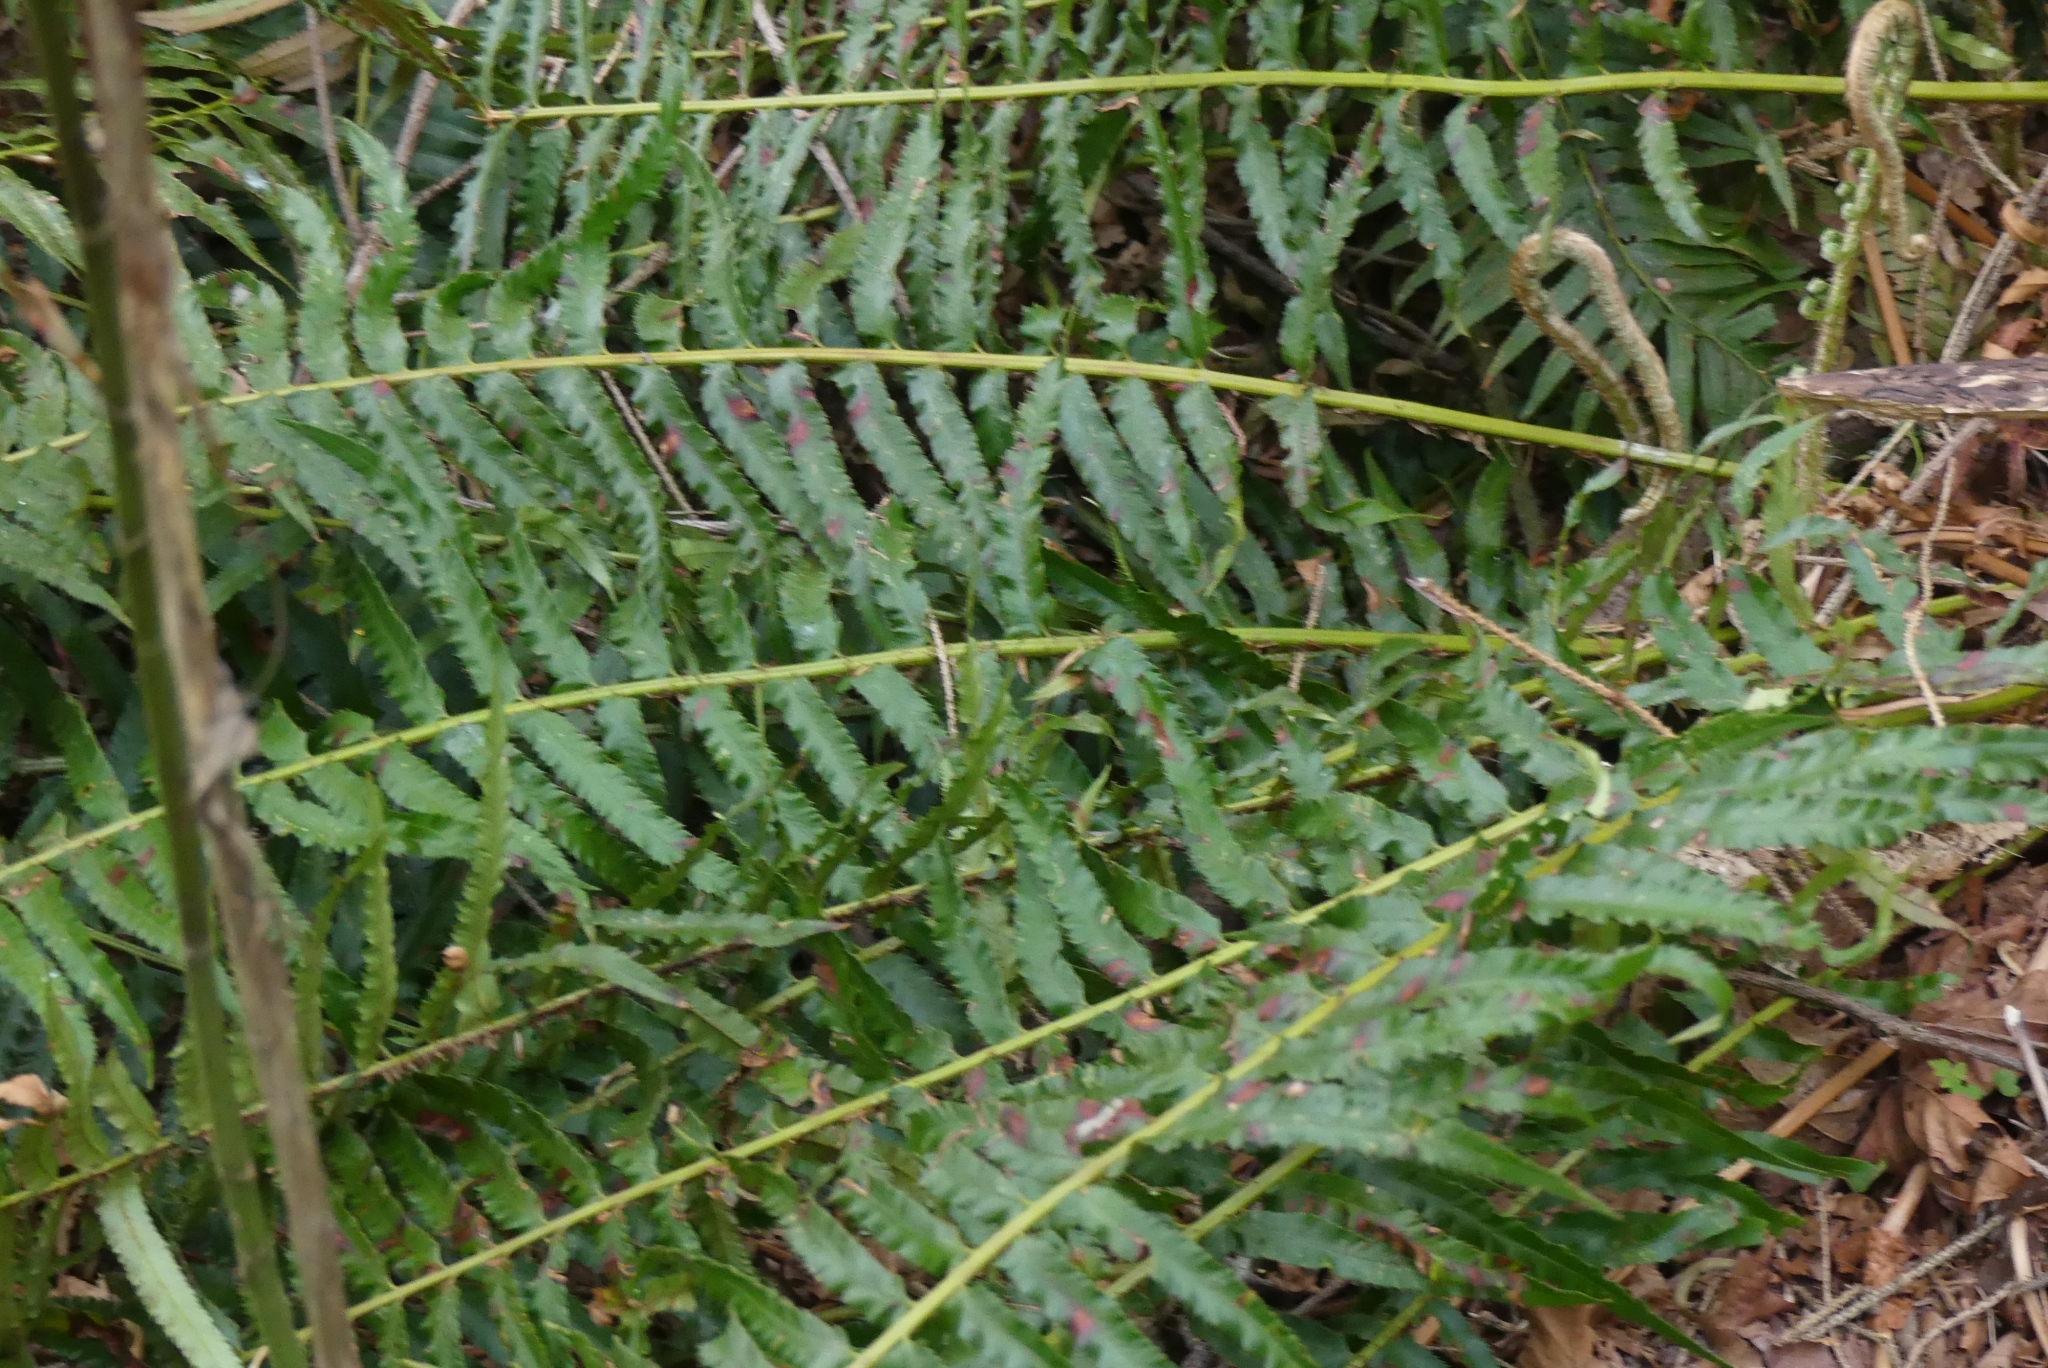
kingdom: Plantae
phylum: Tracheophyta
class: Polypodiopsida
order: Polypodiales
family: Dryopteridaceae
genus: Polystichum
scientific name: Polystichum munitum
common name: Western sword-fern
